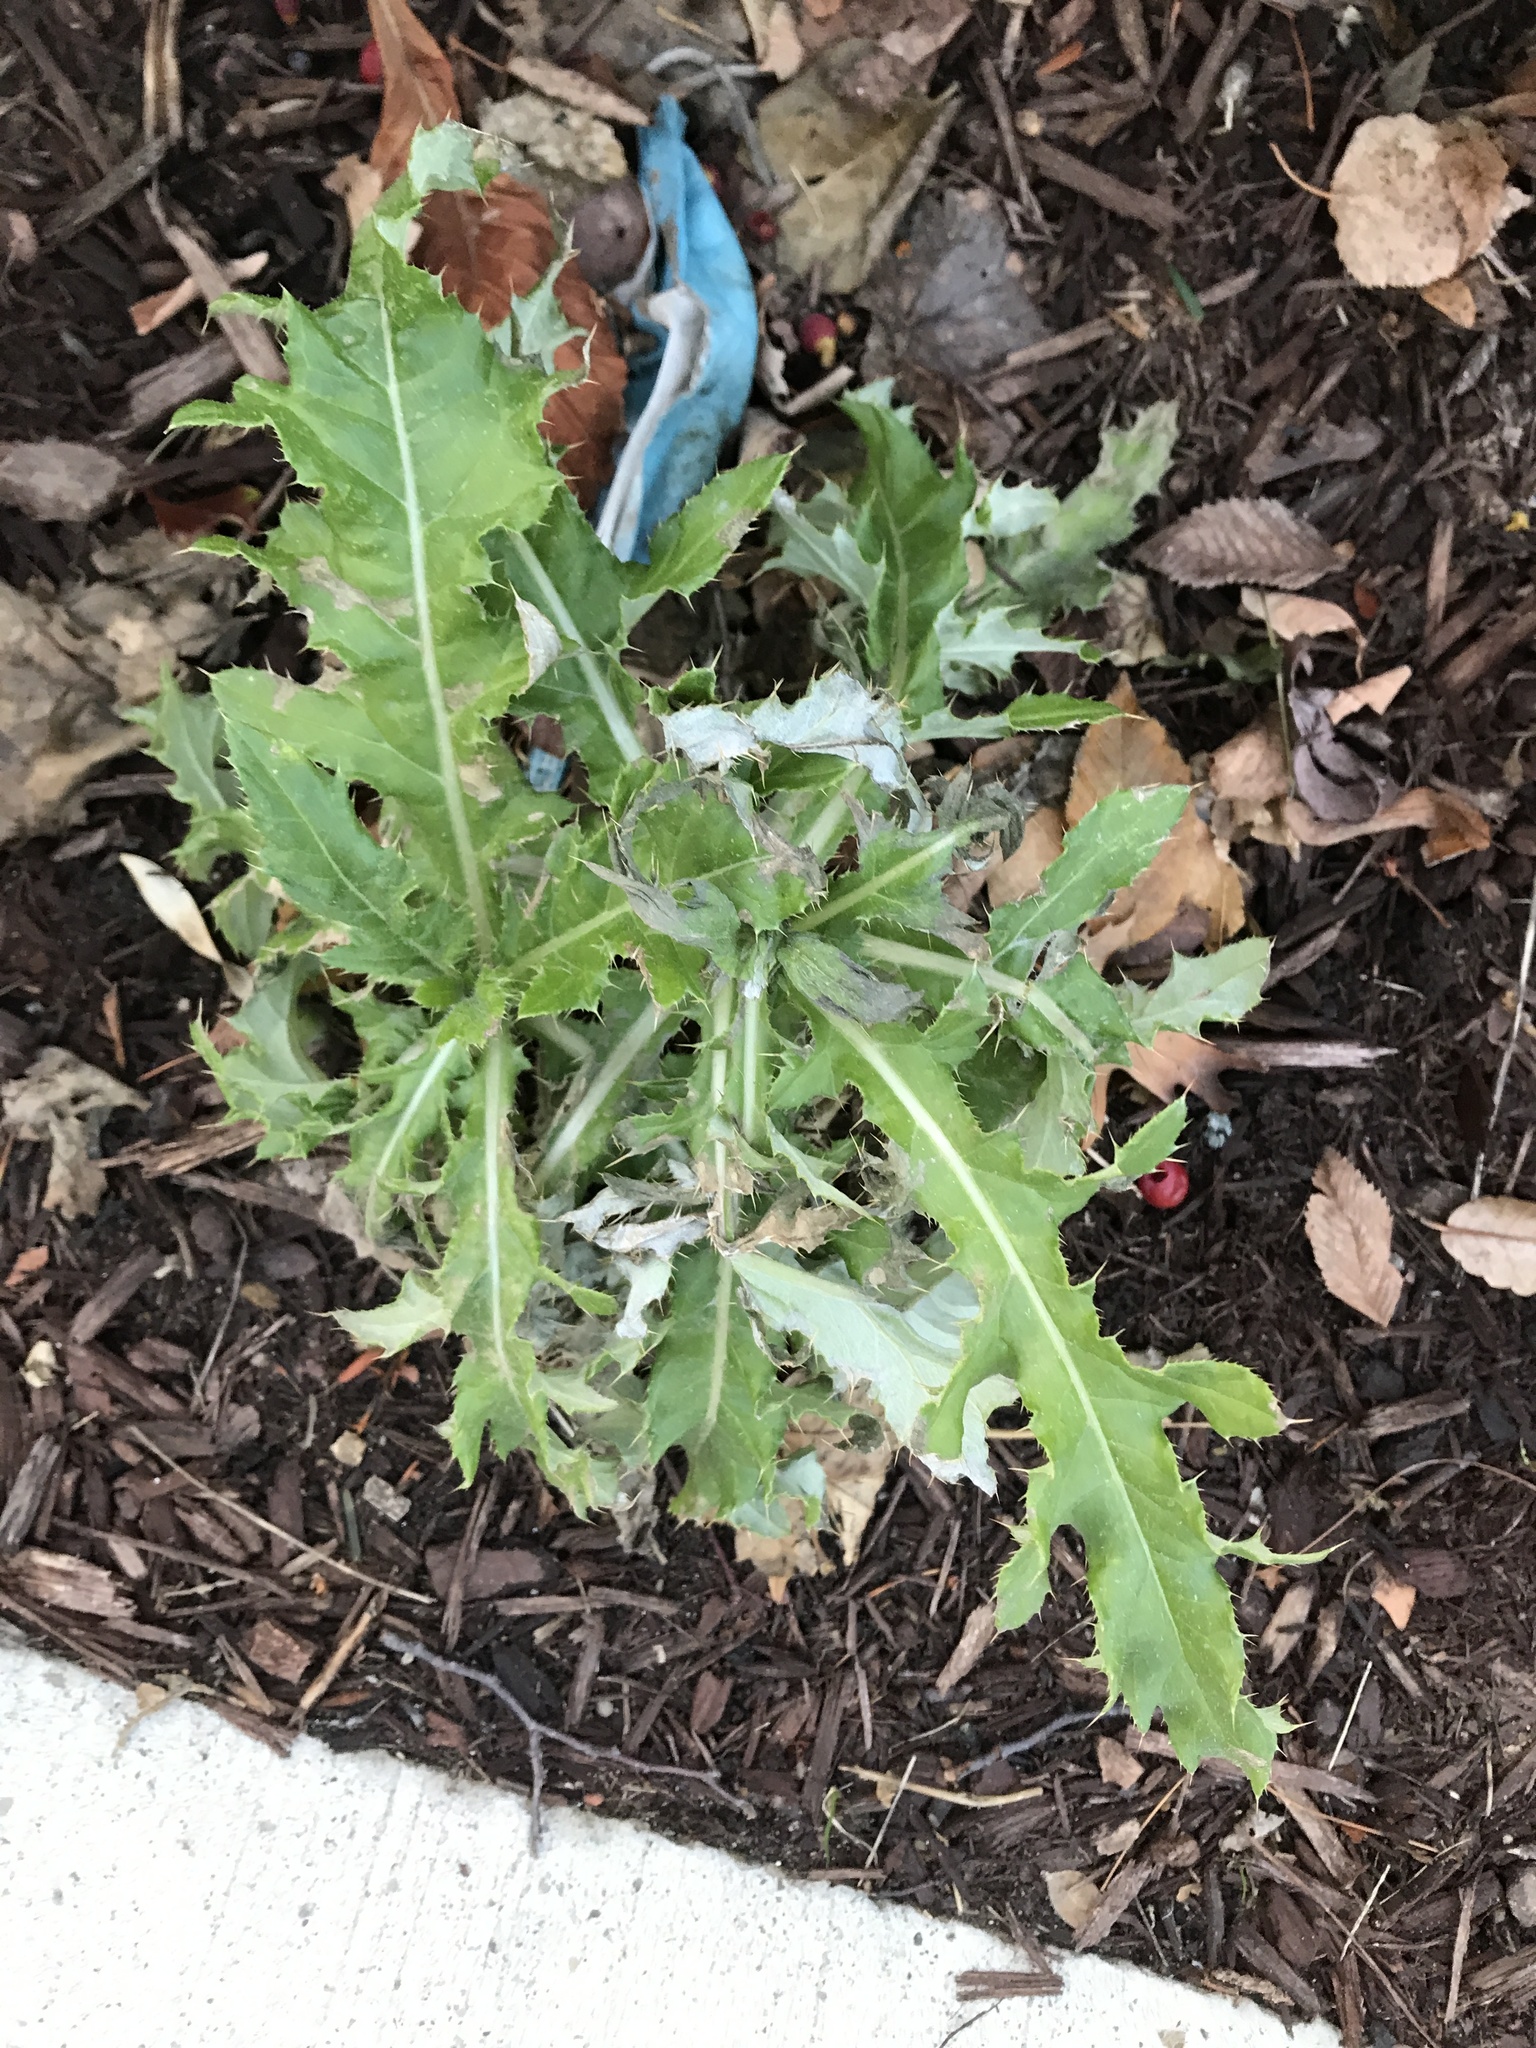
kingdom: Plantae
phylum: Tracheophyta
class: Magnoliopsida
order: Asterales
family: Asteraceae
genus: Cirsium
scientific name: Cirsium arvense
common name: Creeping thistle
